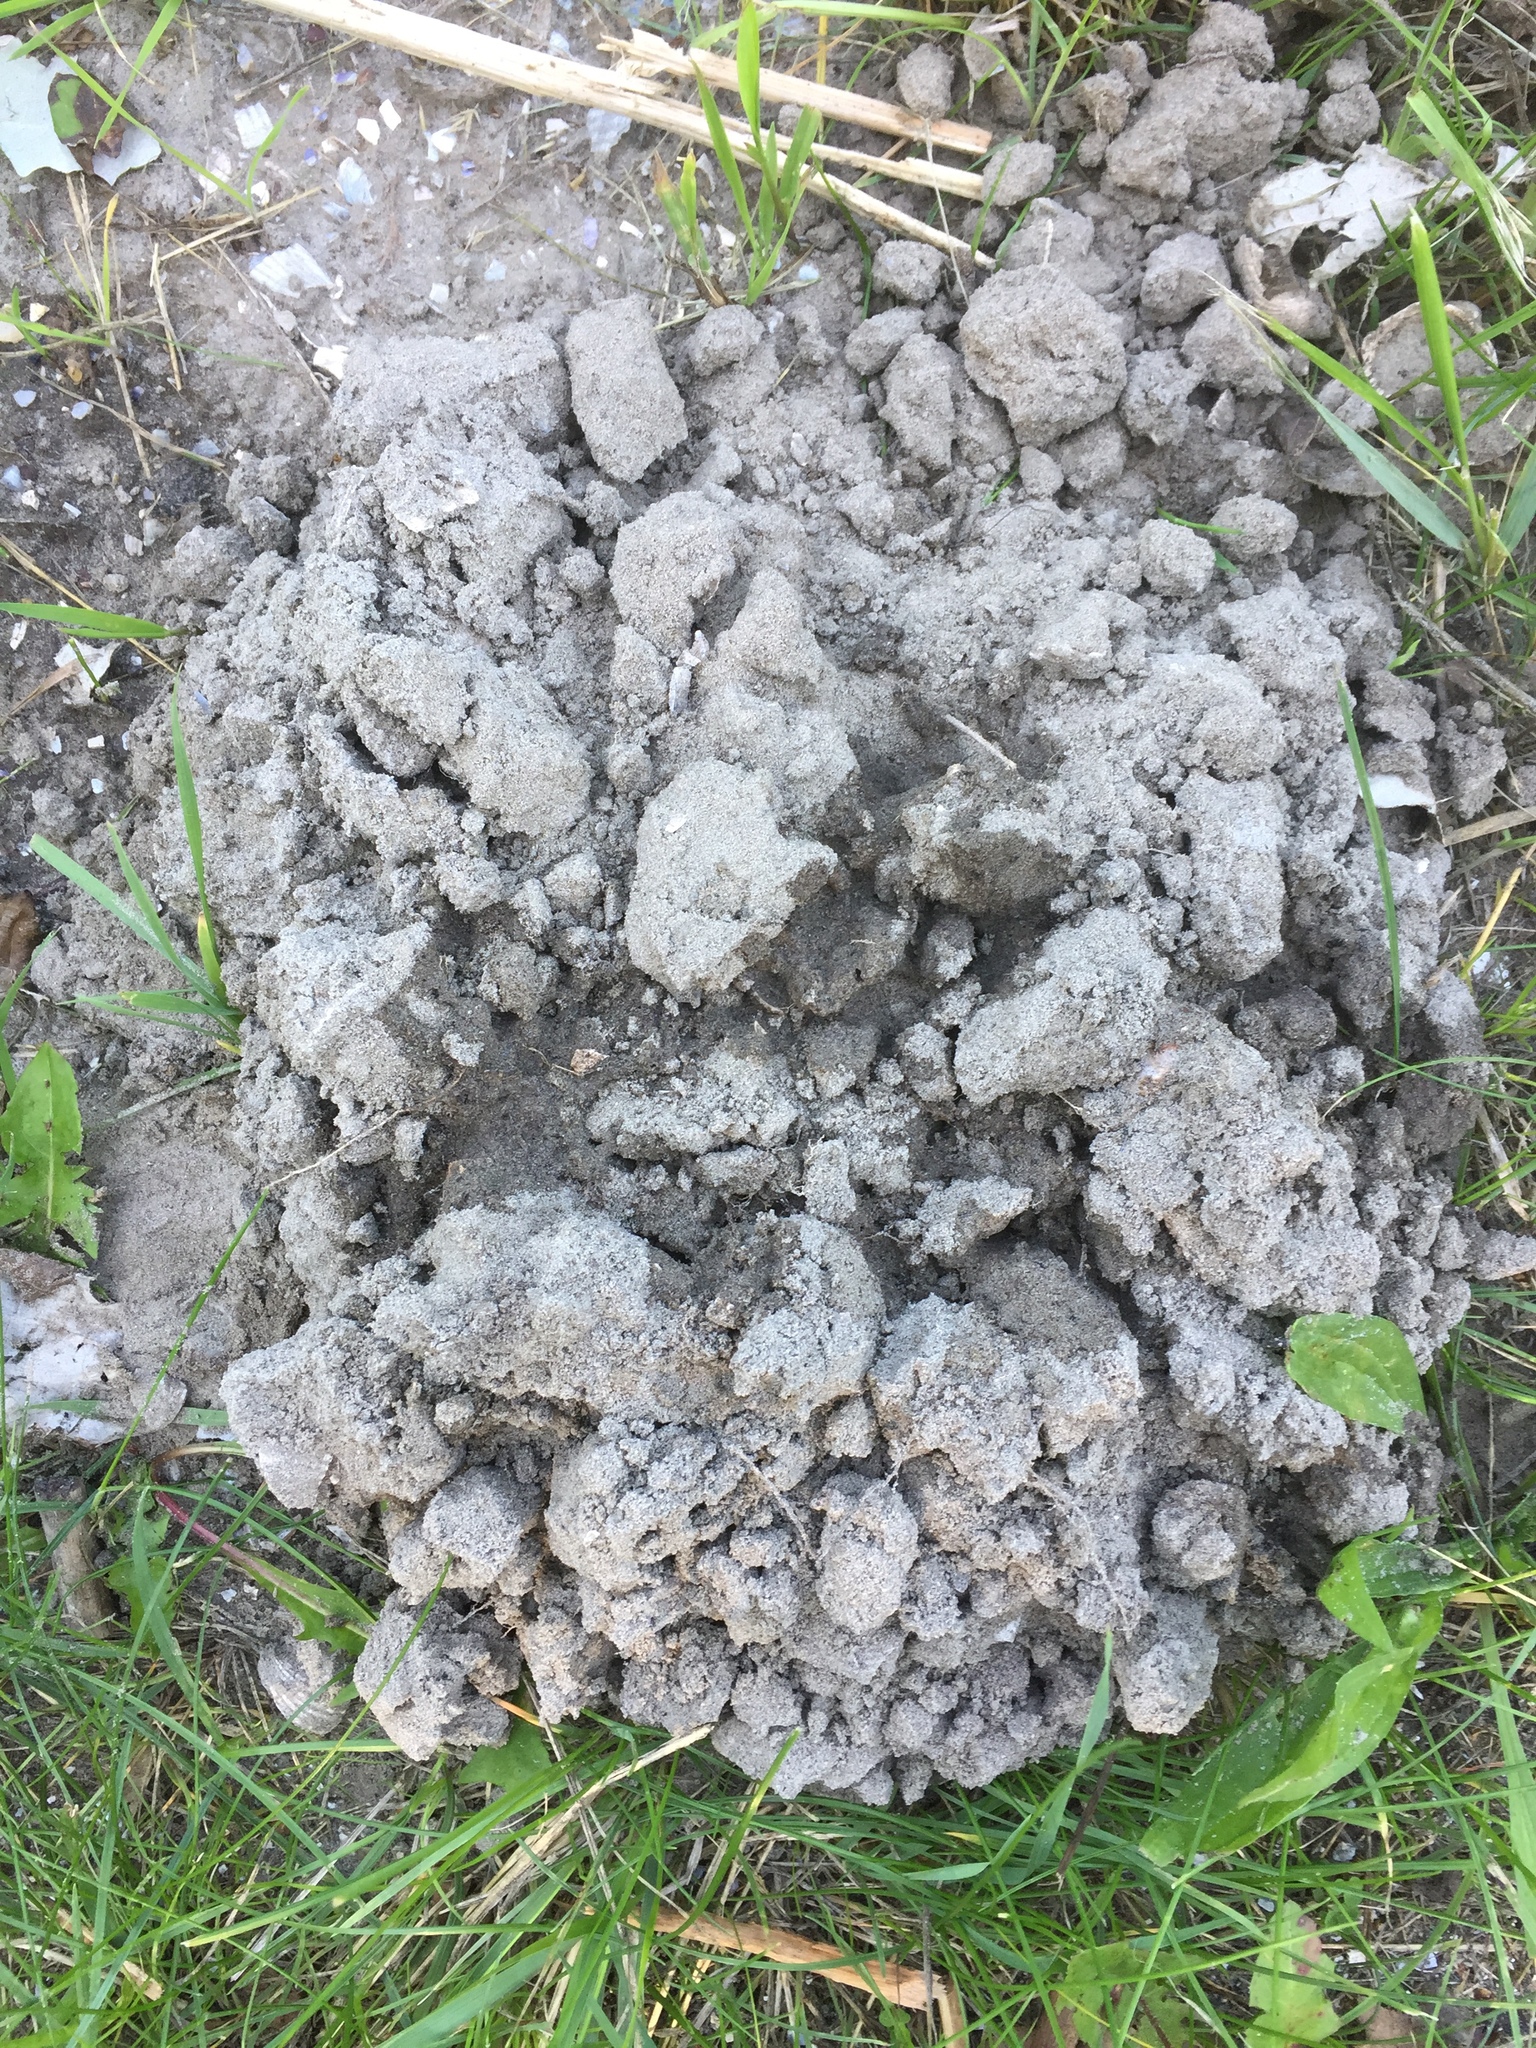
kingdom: Animalia
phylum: Chordata
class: Mammalia
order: Soricomorpha
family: Talpidae
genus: Talpa
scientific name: Talpa europaea
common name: European mole
